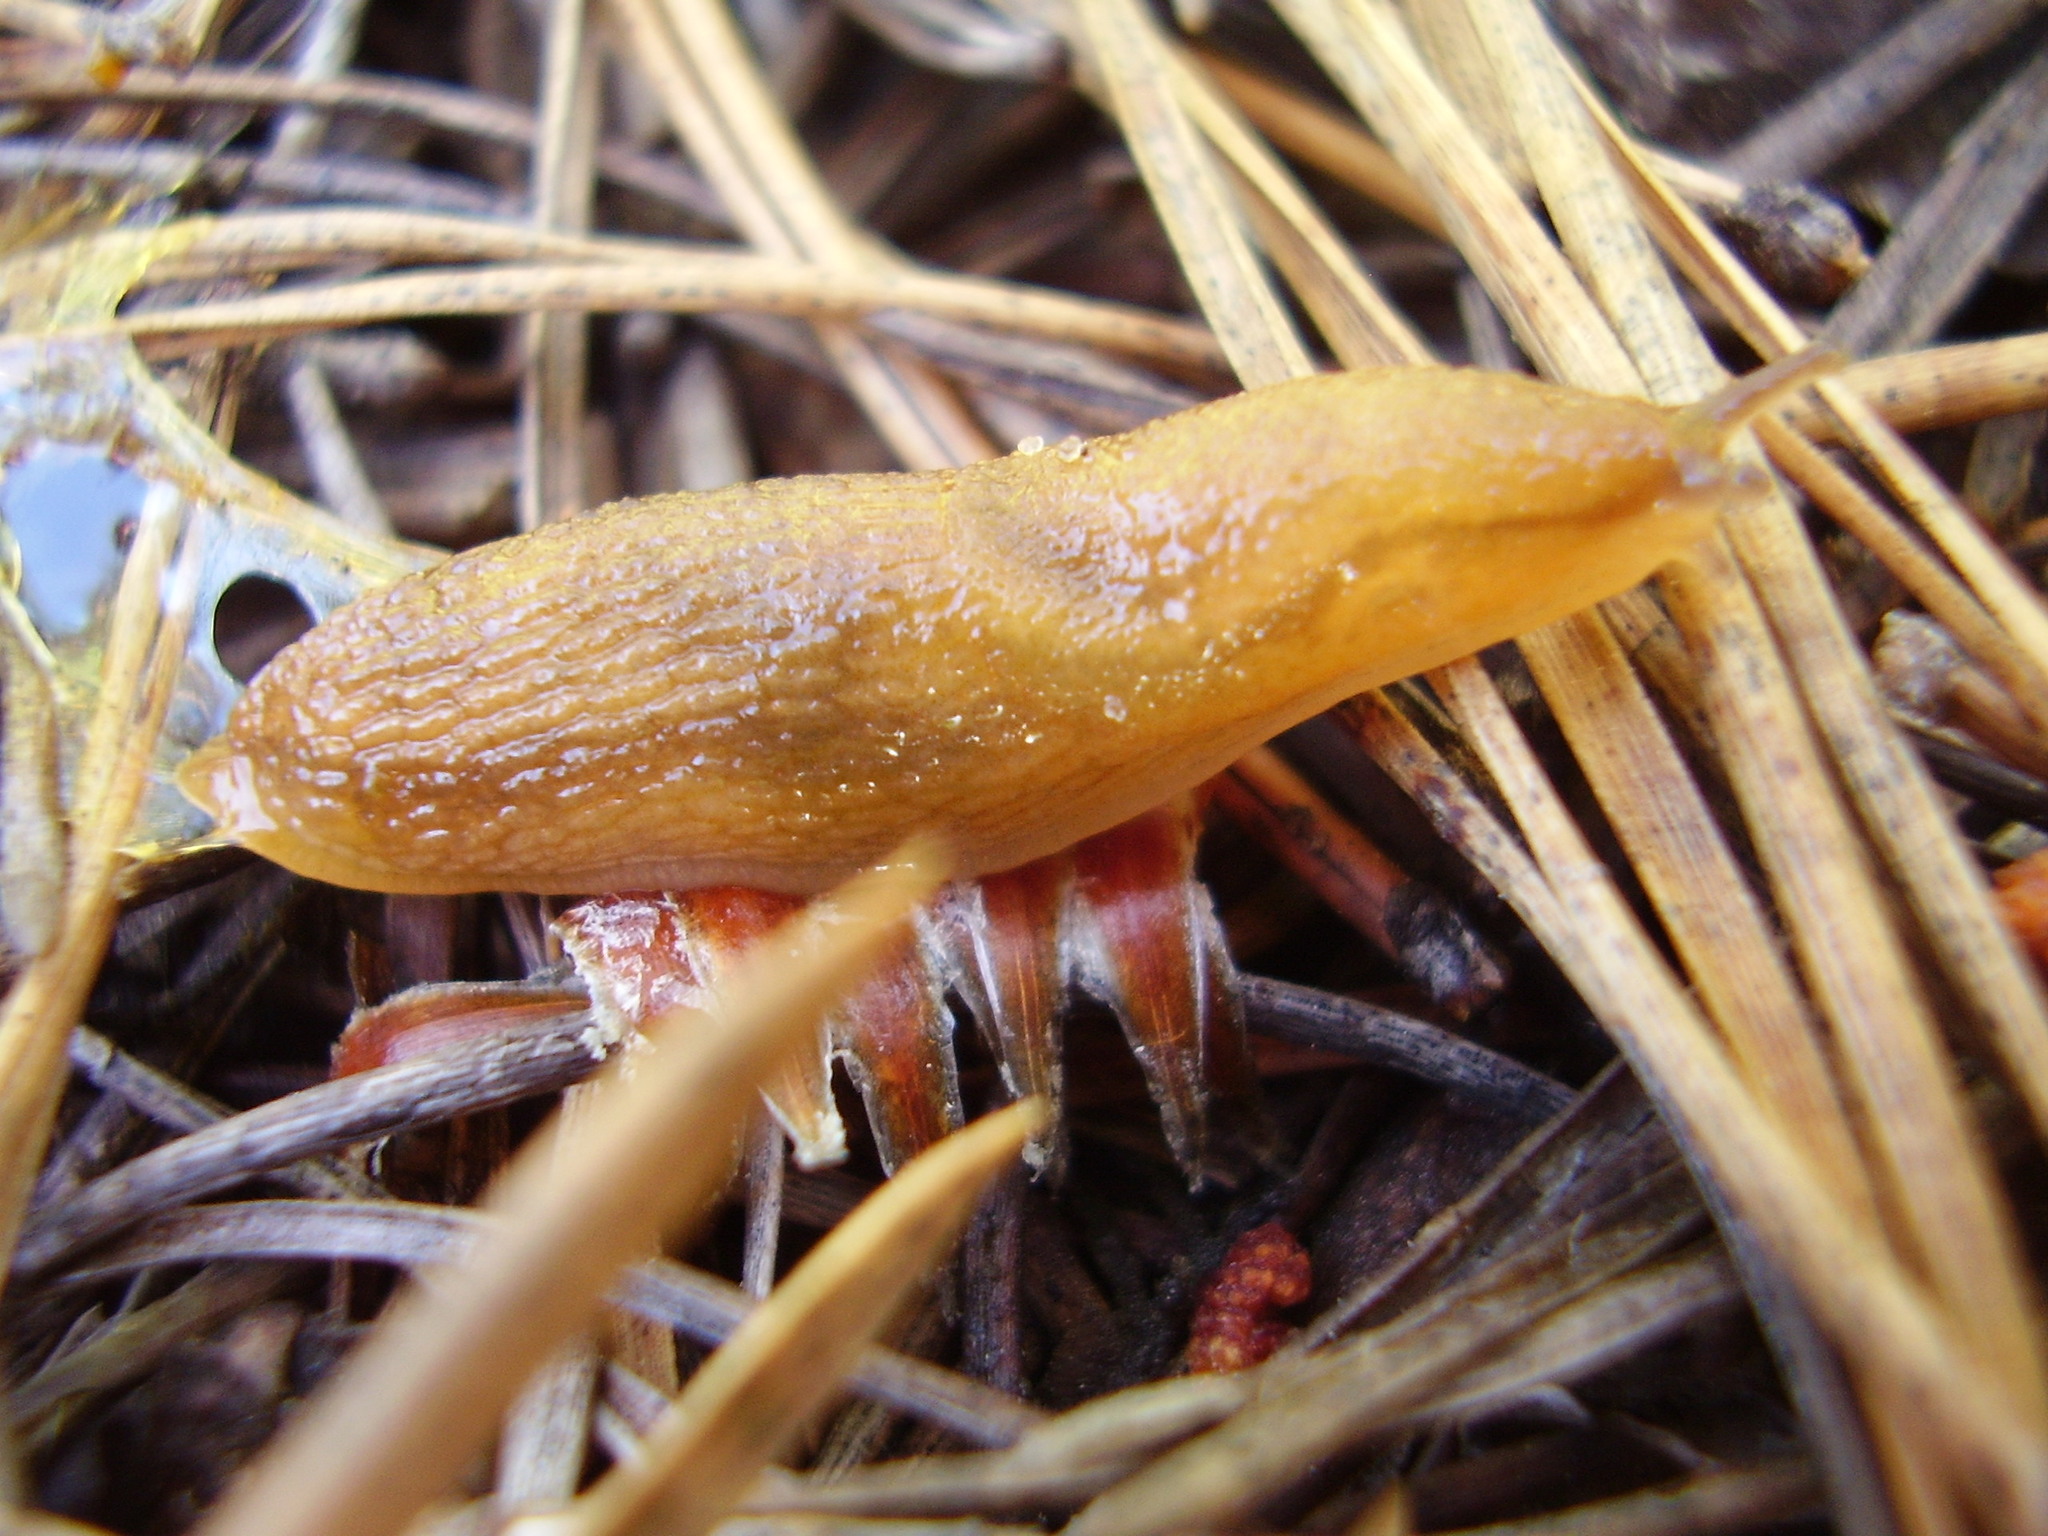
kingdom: Animalia
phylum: Mollusca
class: Gastropoda
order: Stylommatophora
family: Arionidae
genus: Arion
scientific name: Arion fuscus
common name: Northern dusky slug
